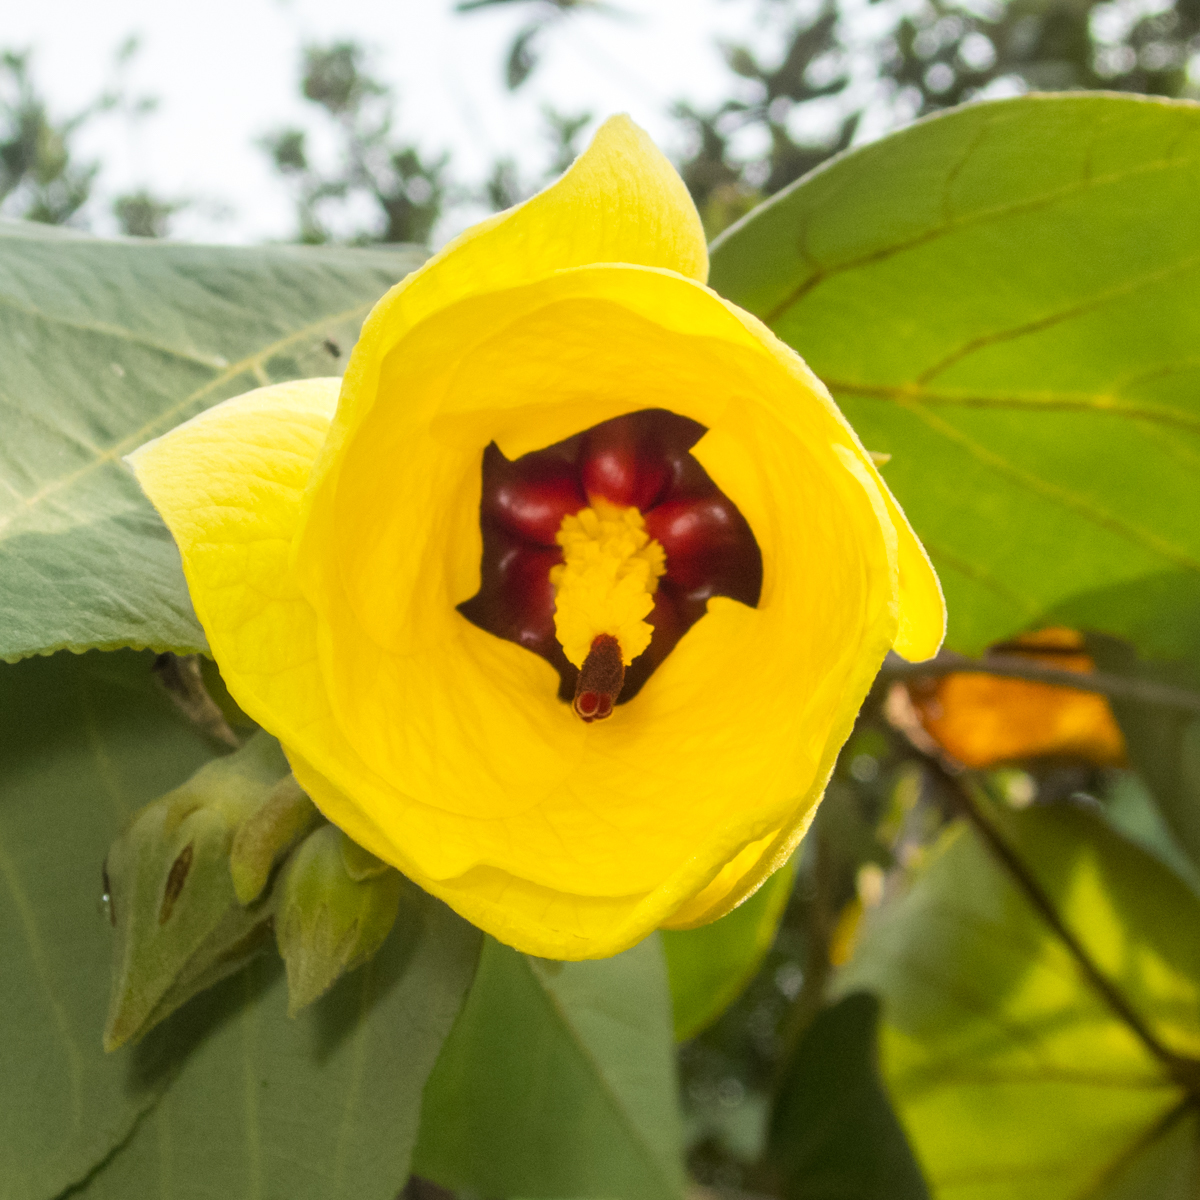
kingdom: Plantae
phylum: Tracheophyta
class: Magnoliopsida
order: Malvales
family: Malvaceae
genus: Talipariti
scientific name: Talipariti tiliaceum
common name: Sea hibiscus
